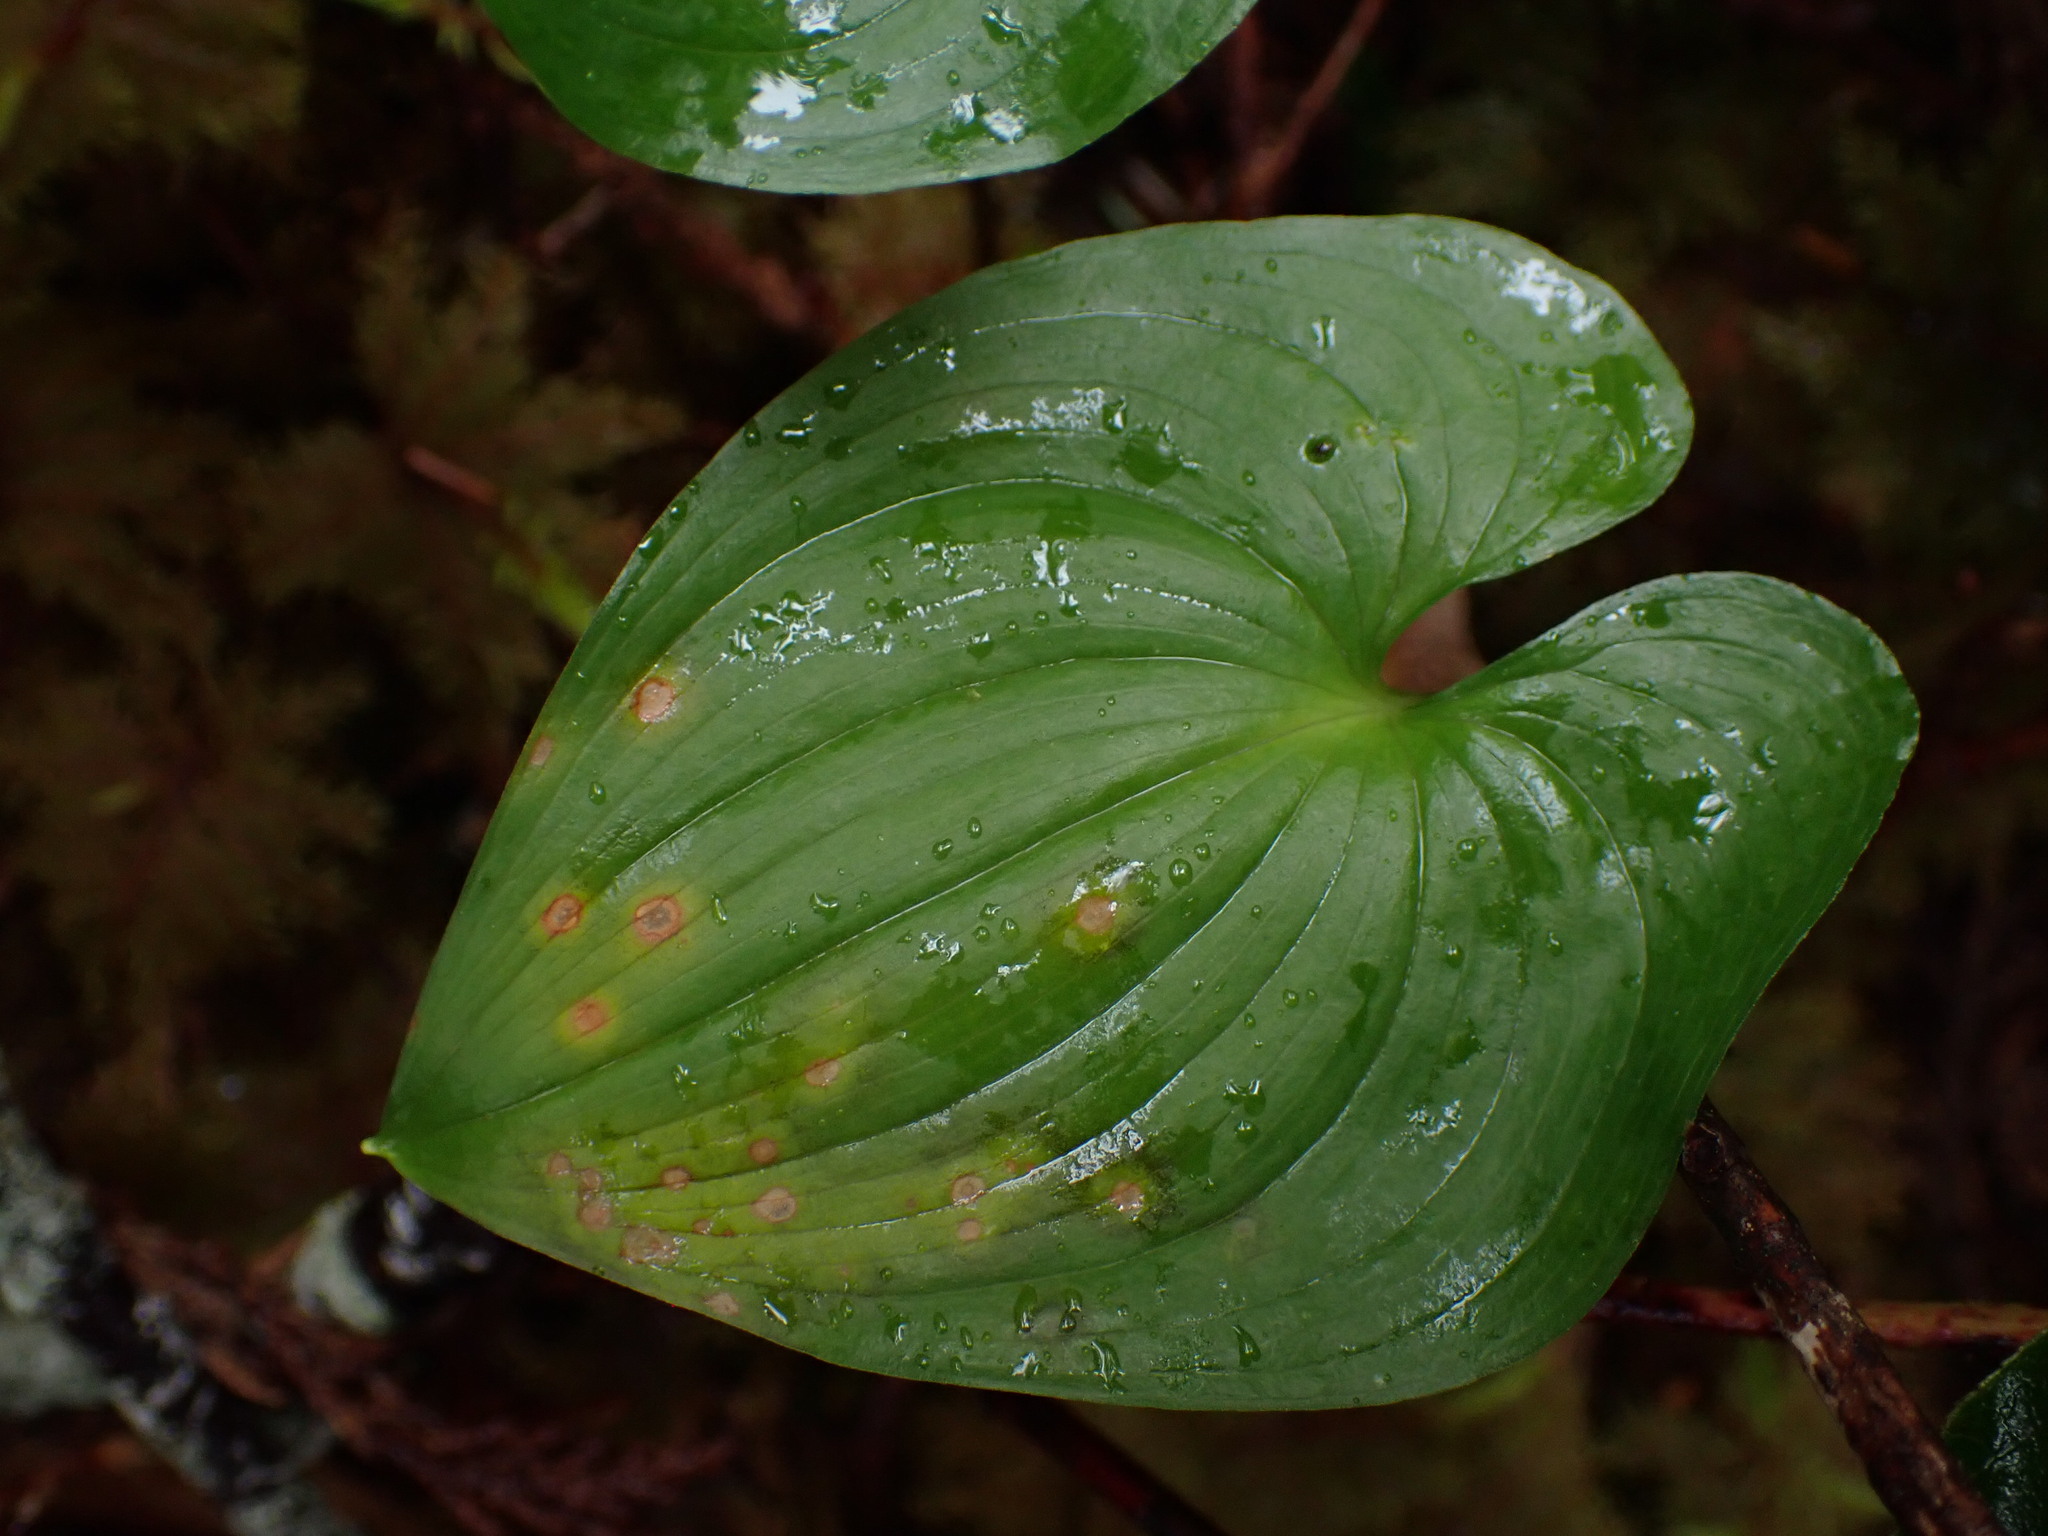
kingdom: Plantae
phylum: Tracheophyta
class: Liliopsida
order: Asparagales
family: Asparagaceae
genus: Maianthemum
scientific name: Maianthemum dilatatum
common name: False lily-of-the-valley
